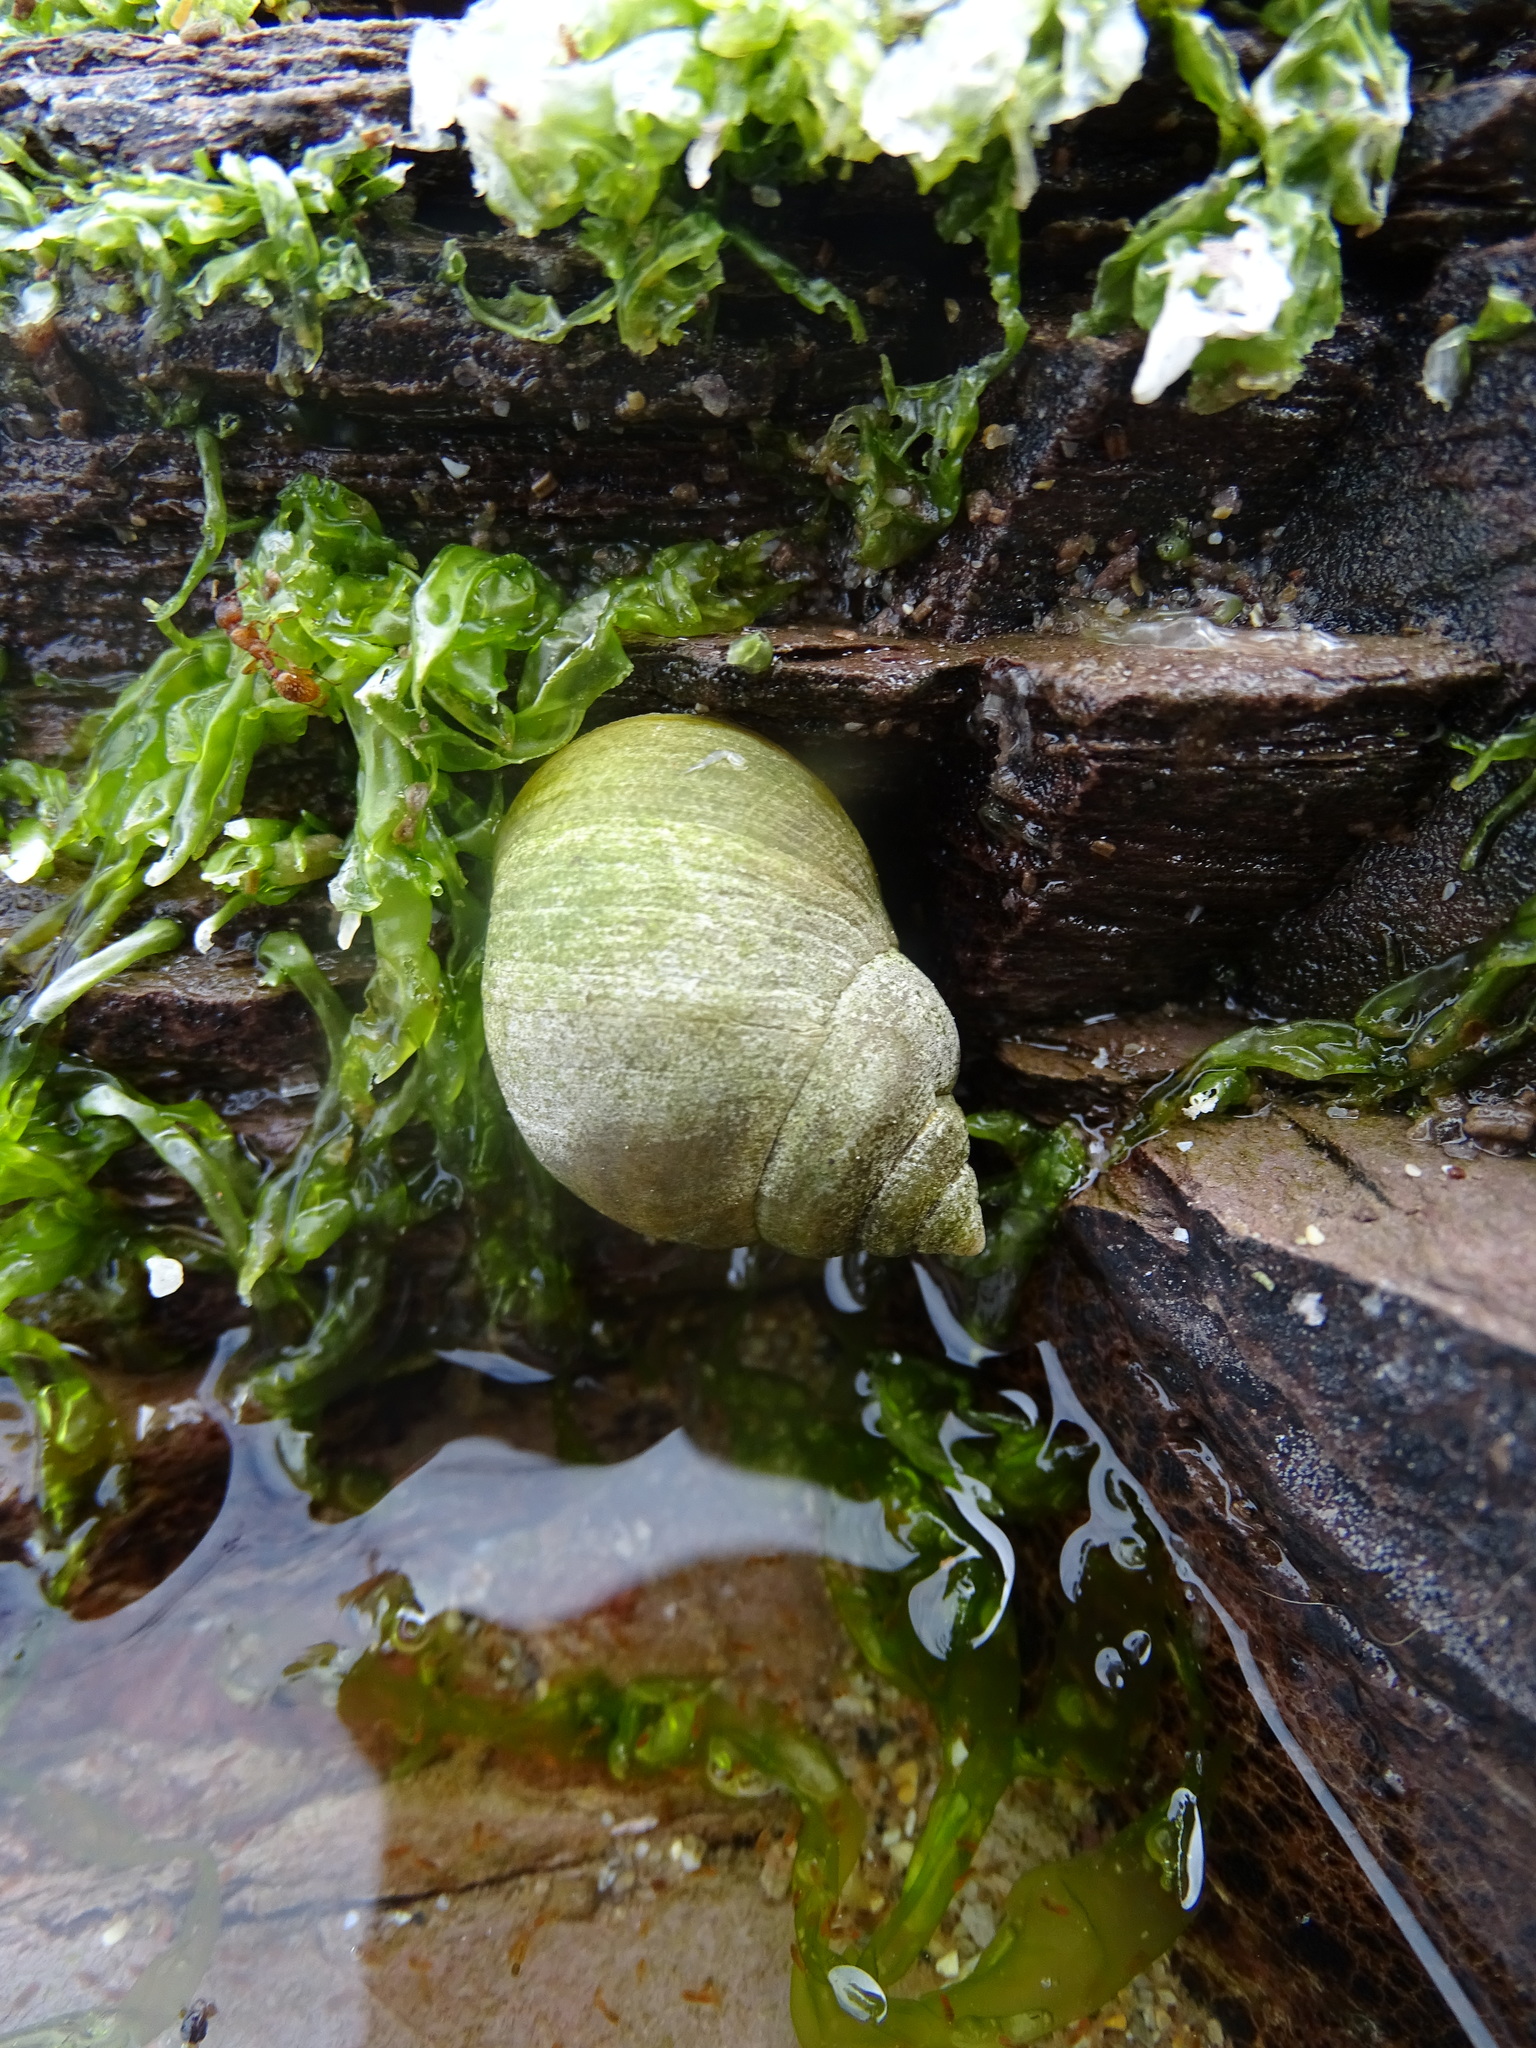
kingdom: Animalia
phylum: Mollusca
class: Gastropoda
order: Littorinimorpha
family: Littorinidae
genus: Littorina
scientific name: Littorina littorea
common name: Common periwinkle
